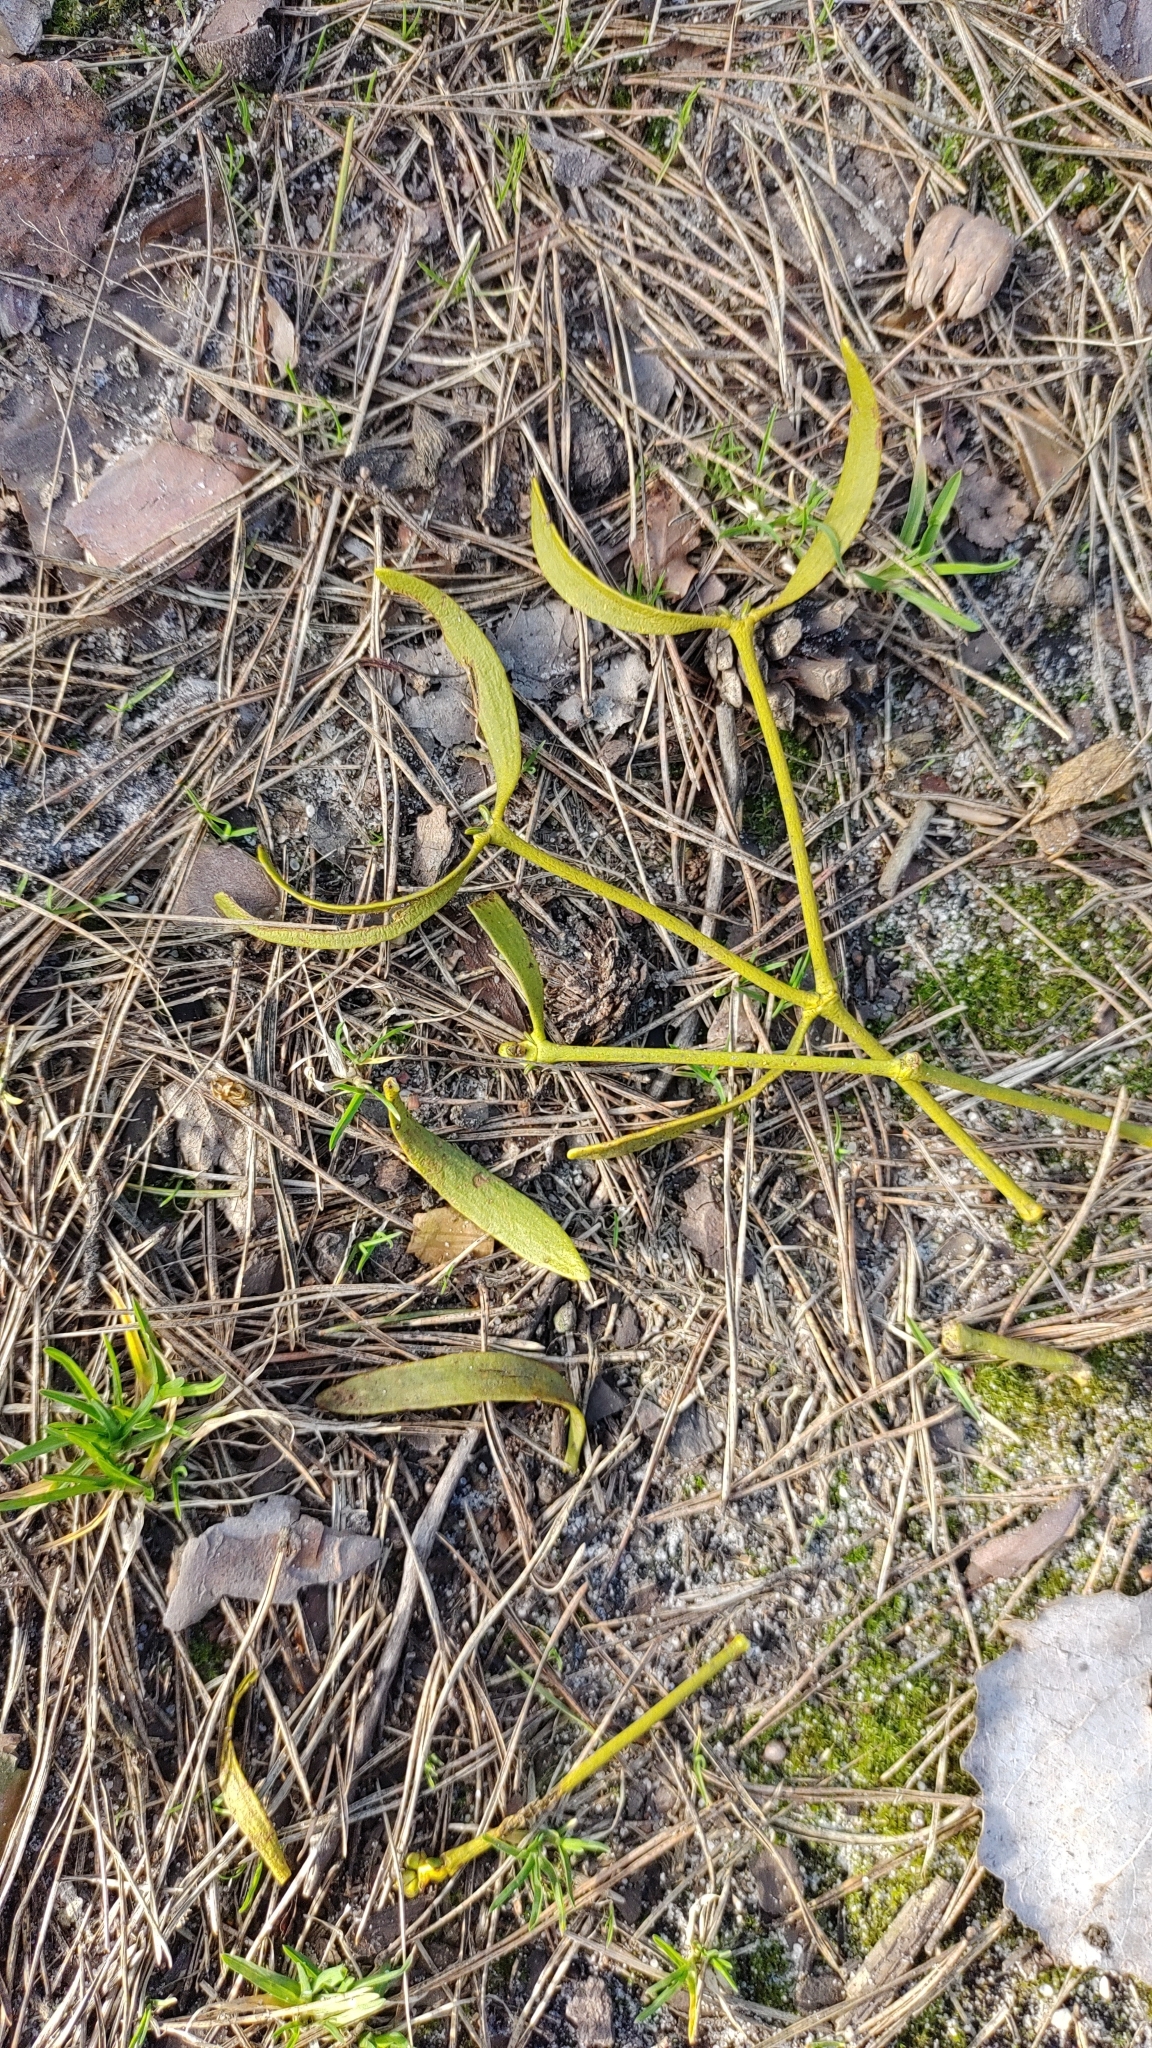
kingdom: Plantae
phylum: Tracheophyta
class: Magnoliopsida
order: Santalales
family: Viscaceae
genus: Viscum
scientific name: Viscum album
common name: Mistletoe
